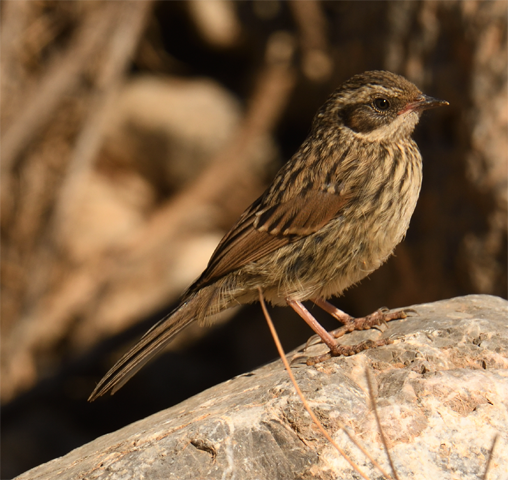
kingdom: Animalia
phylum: Chordata
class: Aves
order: Passeriformes
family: Prunellidae
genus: Prunella
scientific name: Prunella ocularis
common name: Radde's accentor
